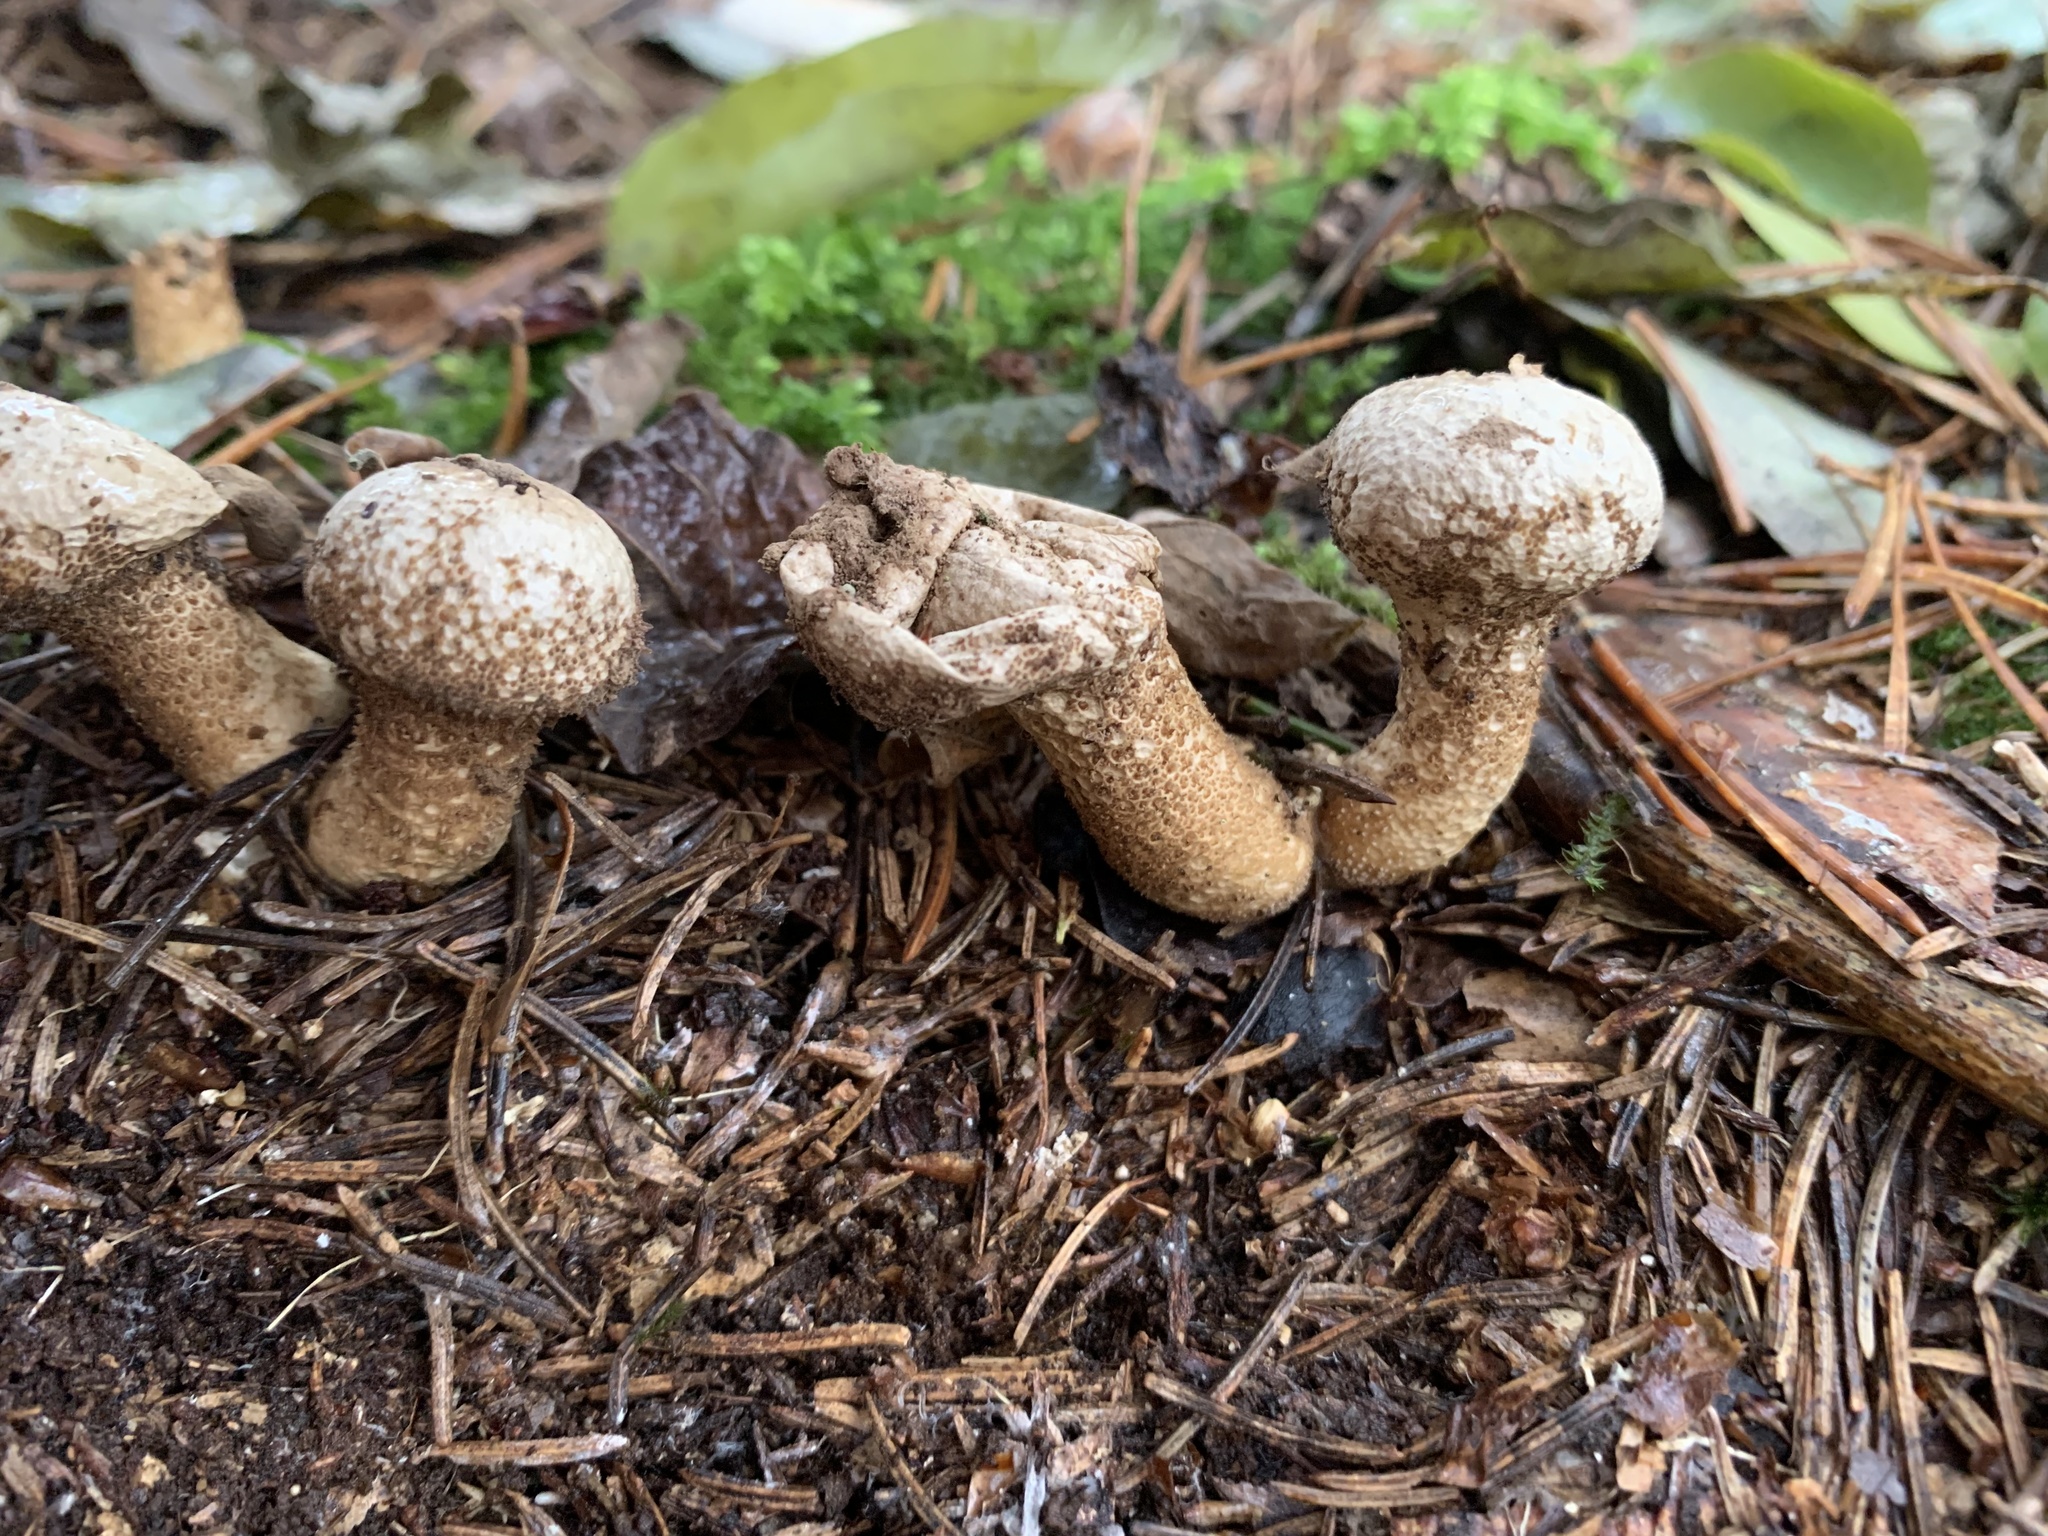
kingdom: Fungi
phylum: Basidiomycota
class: Agaricomycetes
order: Agaricales
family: Lycoperdaceae
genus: Lycoperdon
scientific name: Lycoperdon perlatum
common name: Common puffball
